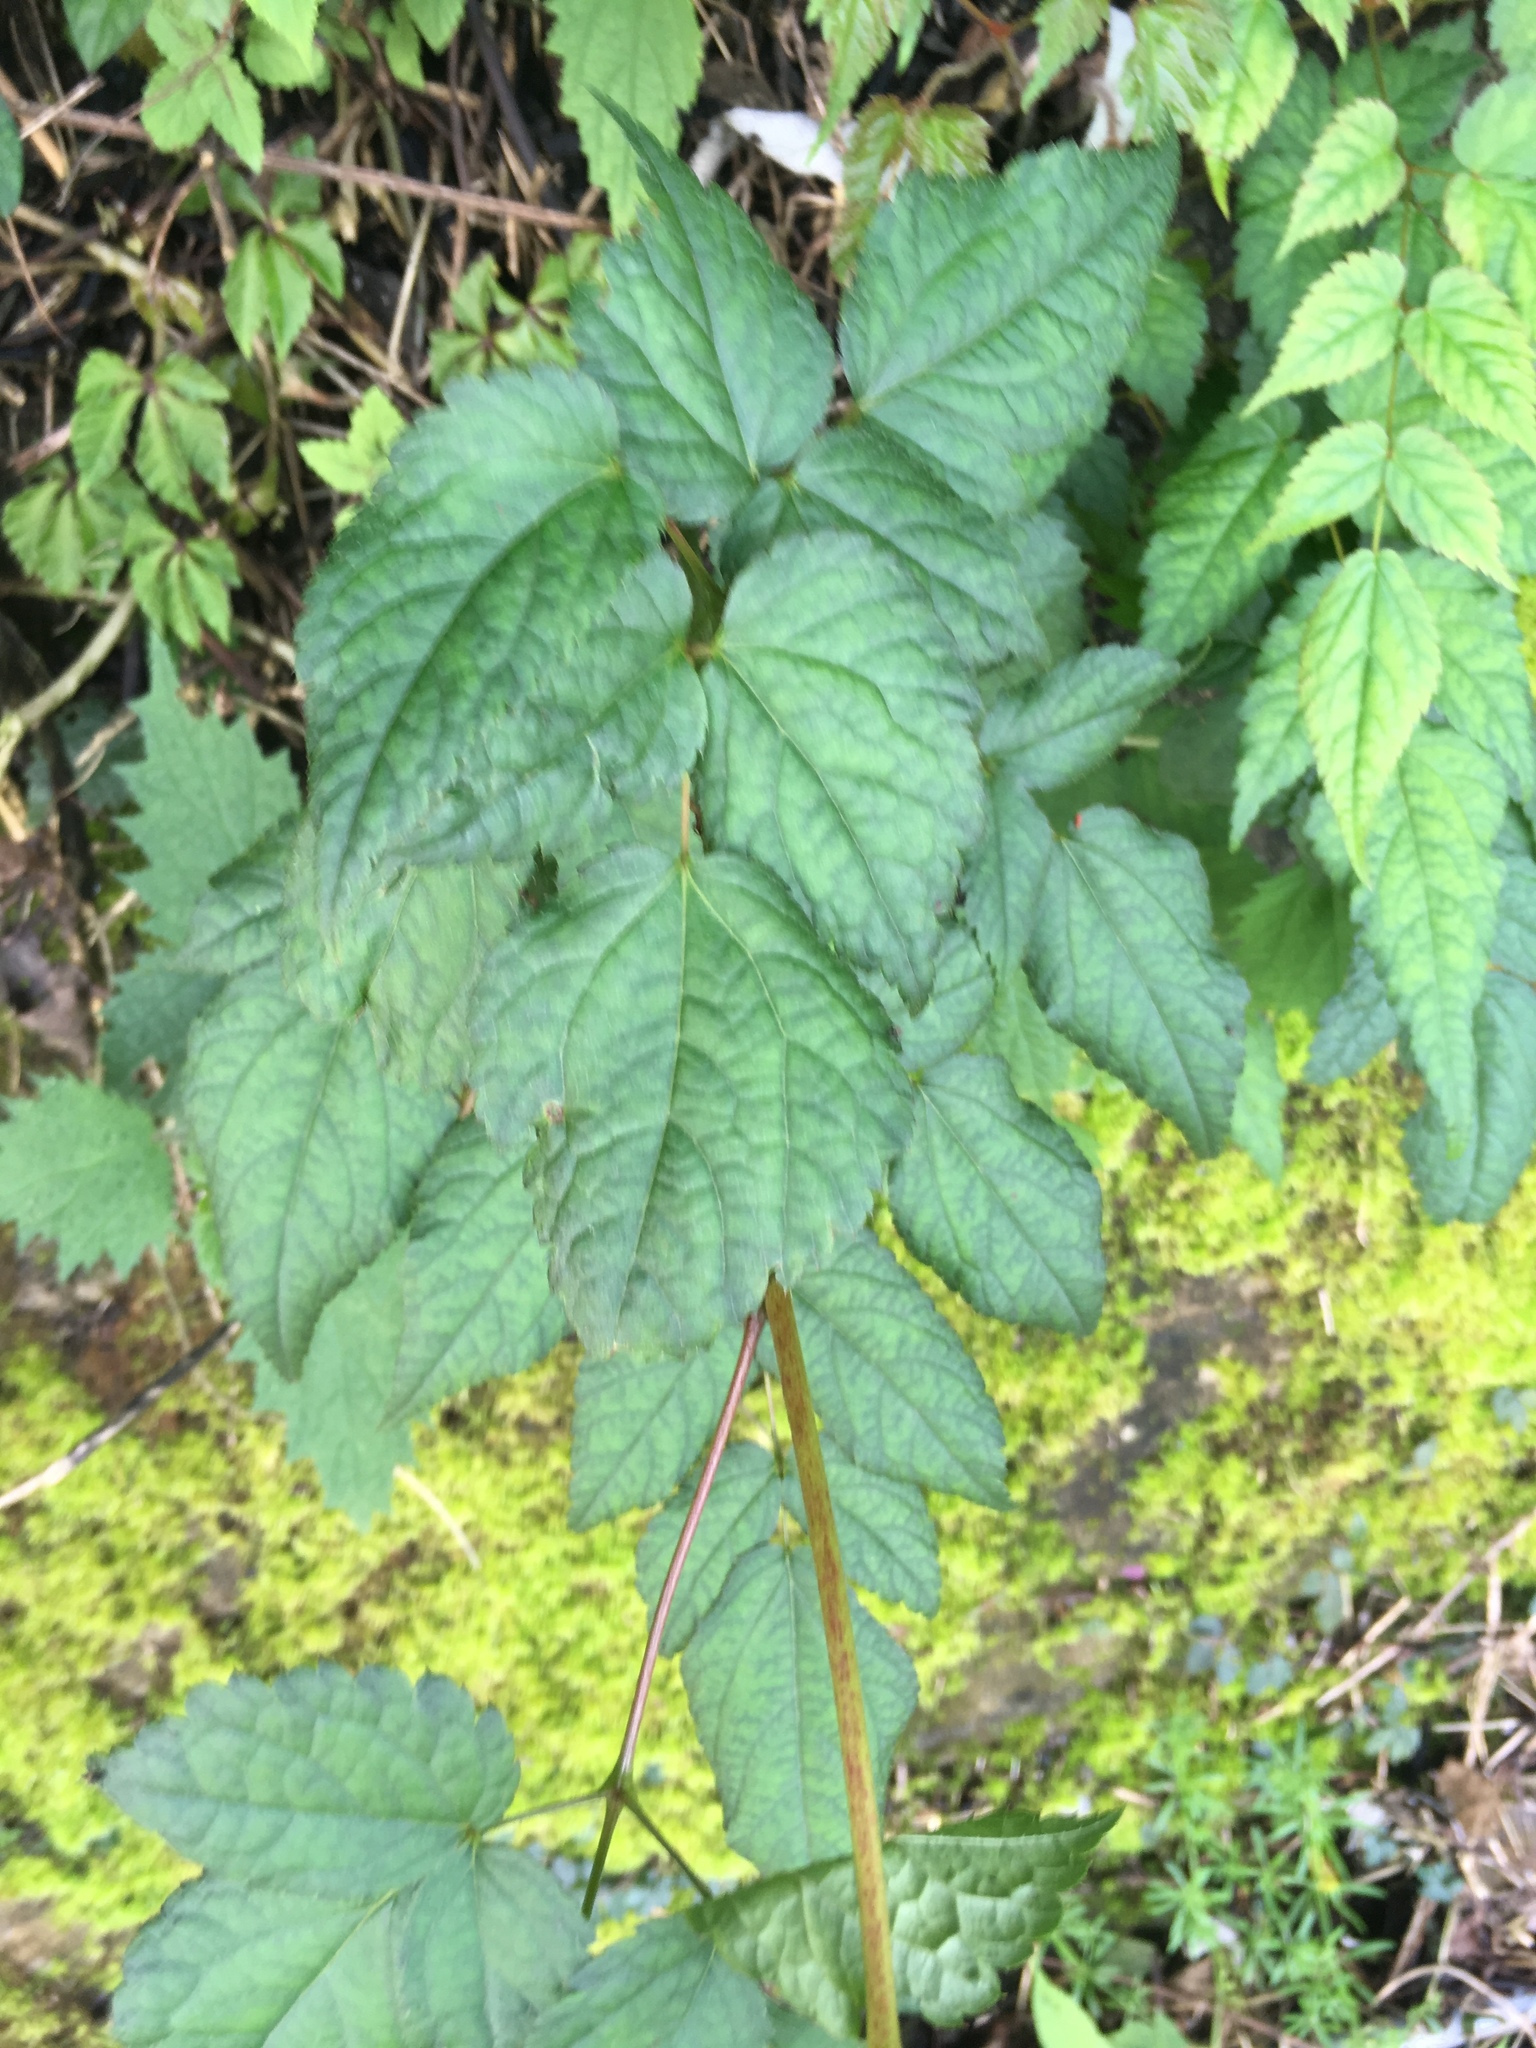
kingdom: Plantae
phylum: Tracheophyta
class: Magnoliopsida
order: Saxifragales
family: Saxifragaceae
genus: Astilbe
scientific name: Astilbe longicarpa
